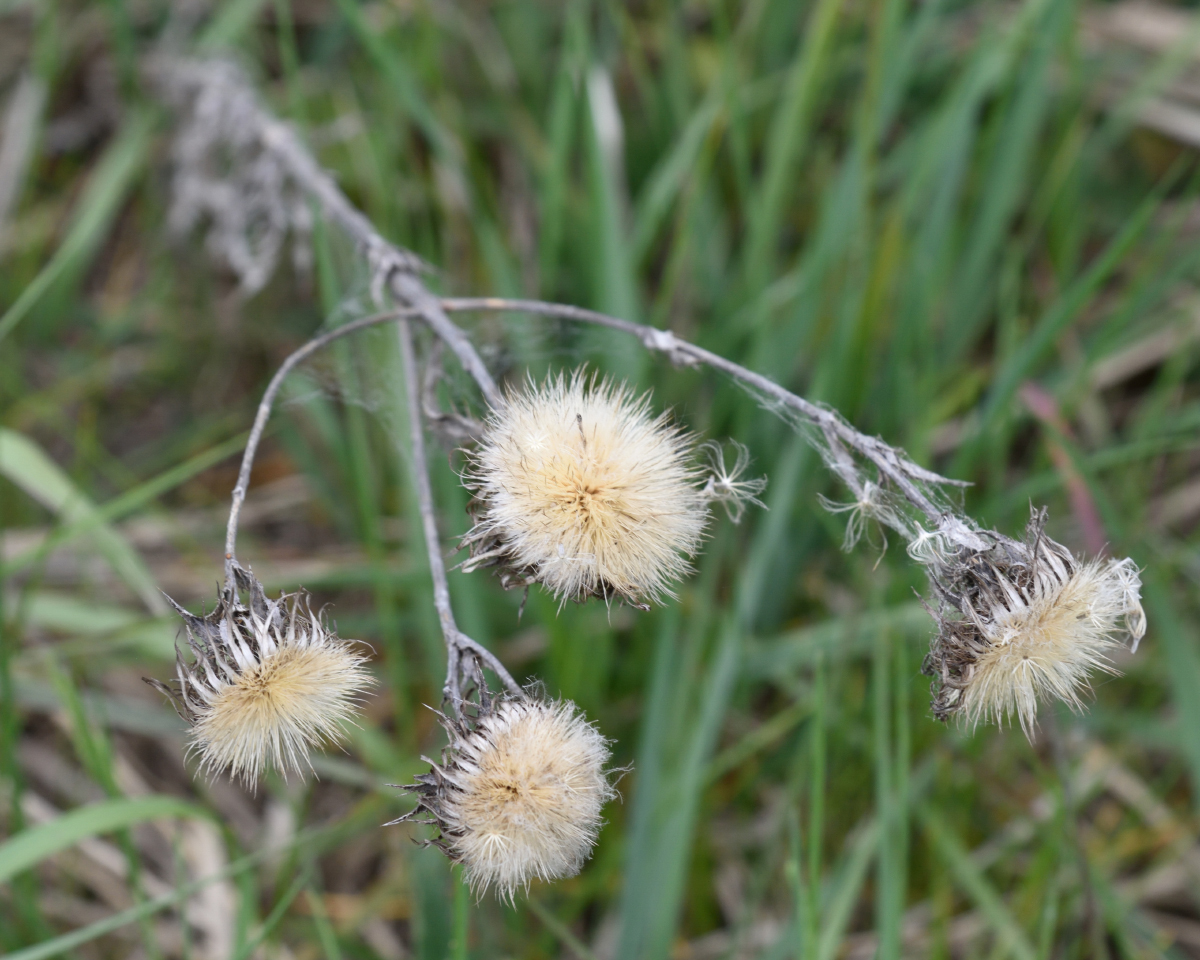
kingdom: Plantae
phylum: Tracheophyta
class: Magnoliopsida
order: Asterales
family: Asteraceae
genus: Carlina
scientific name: Carlina biebersteinii
